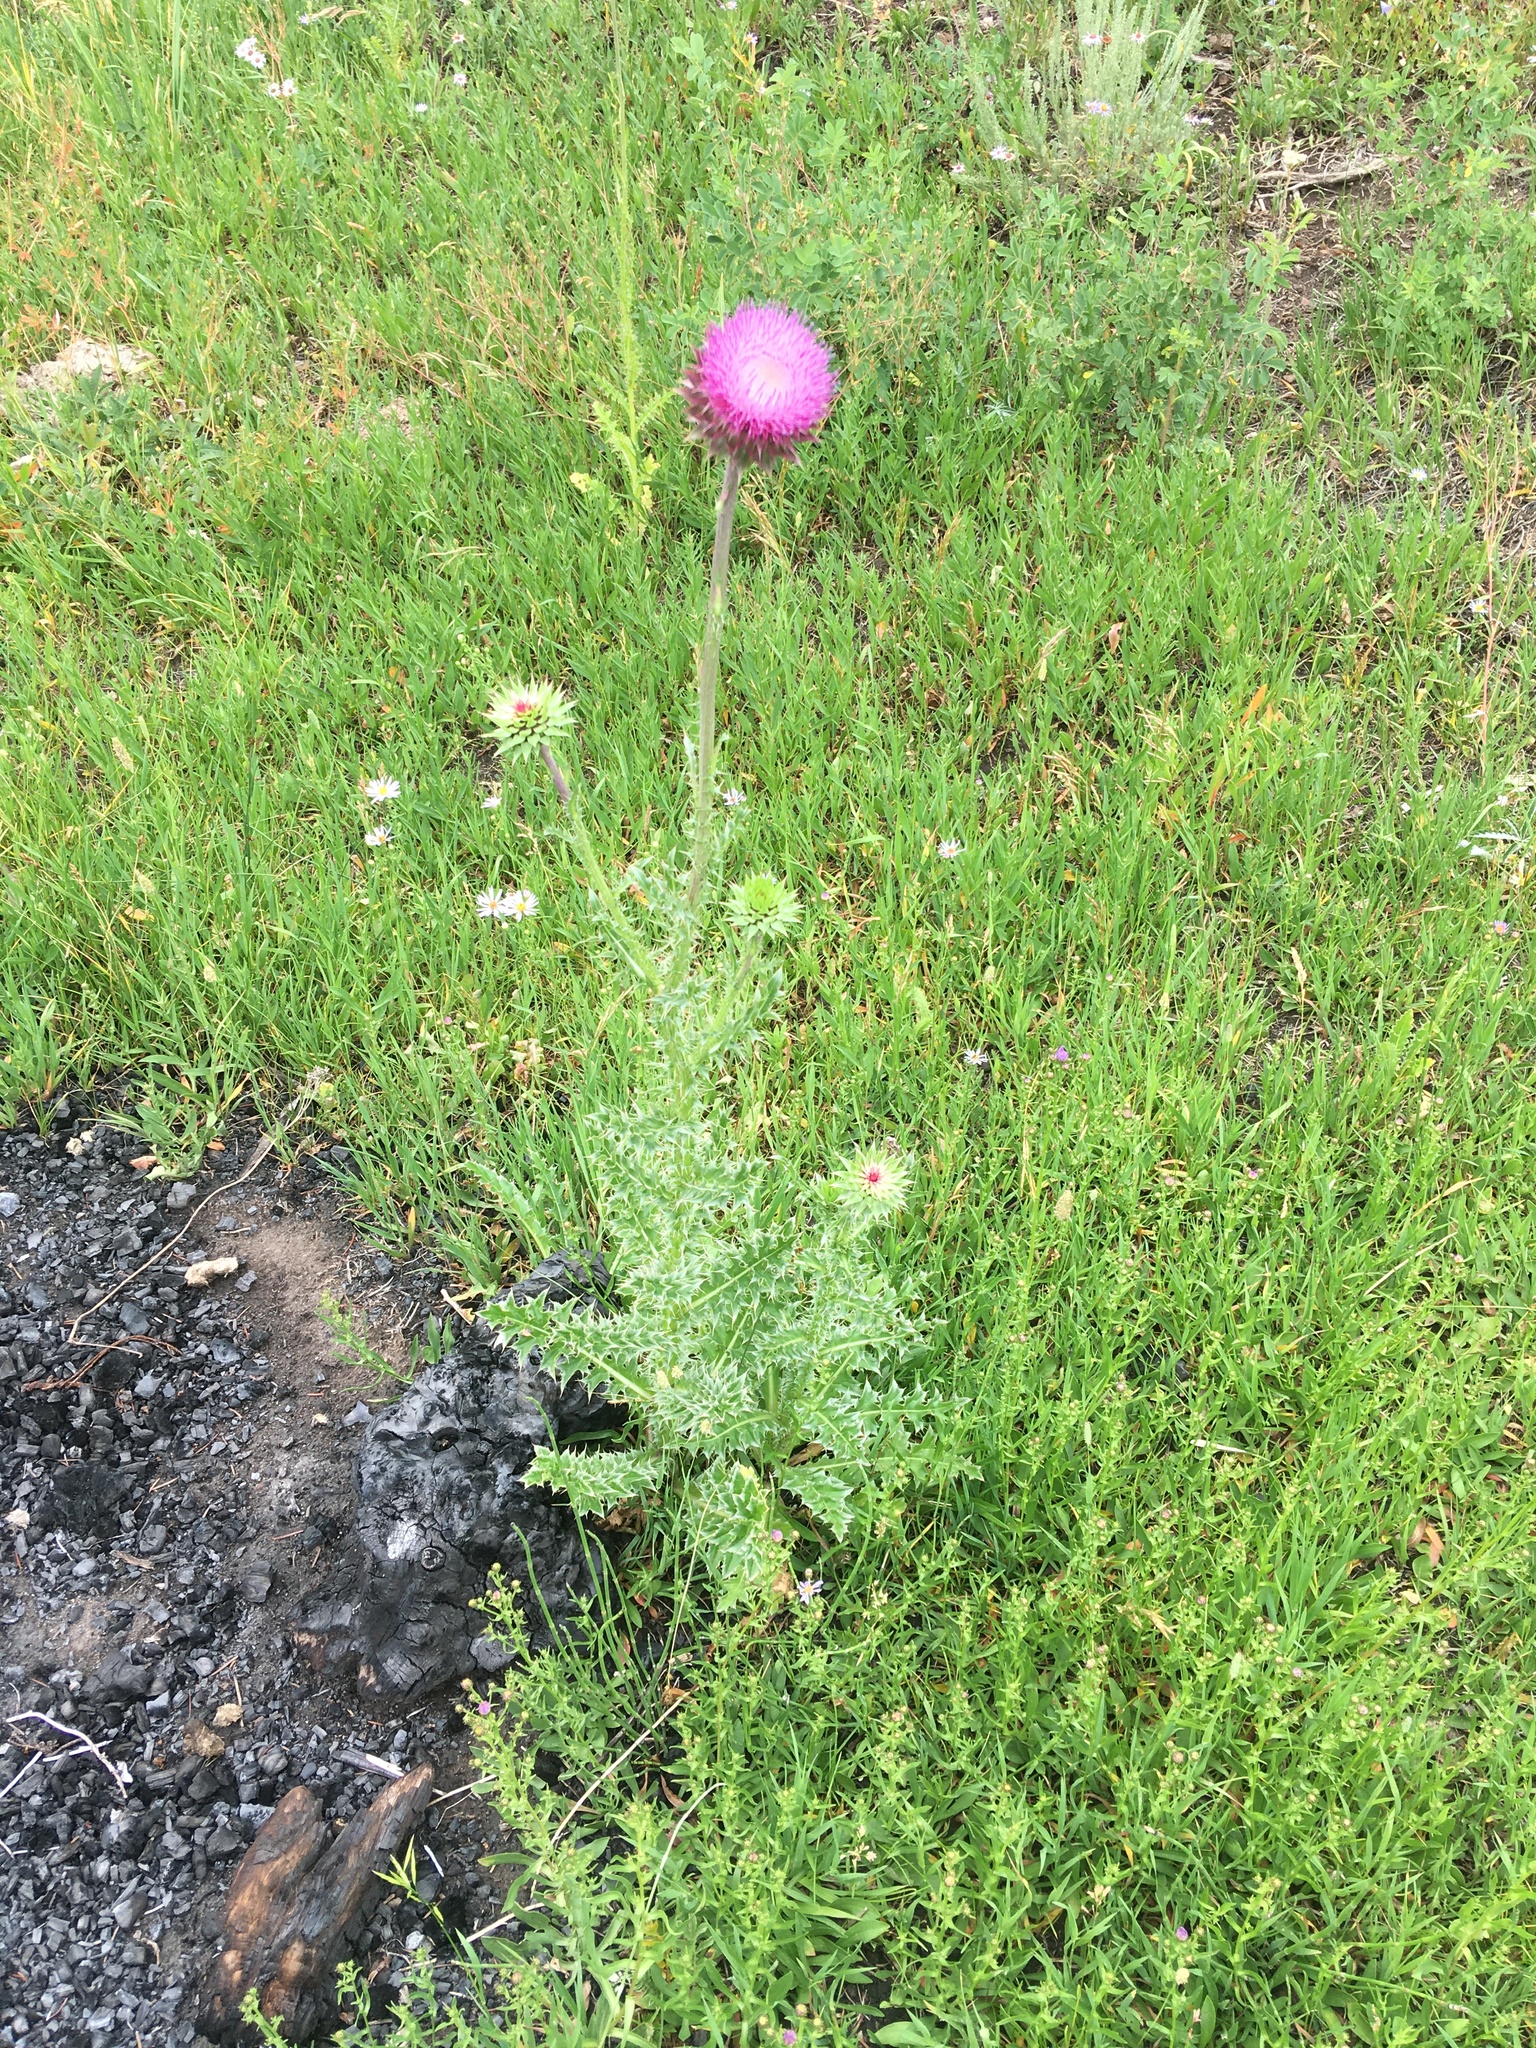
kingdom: Plantae
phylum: Tracheophyta
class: Magnoliopsida
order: Asterales
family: Asteraceae
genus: Carduus
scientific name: Carduus nutans
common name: Musk thistle
